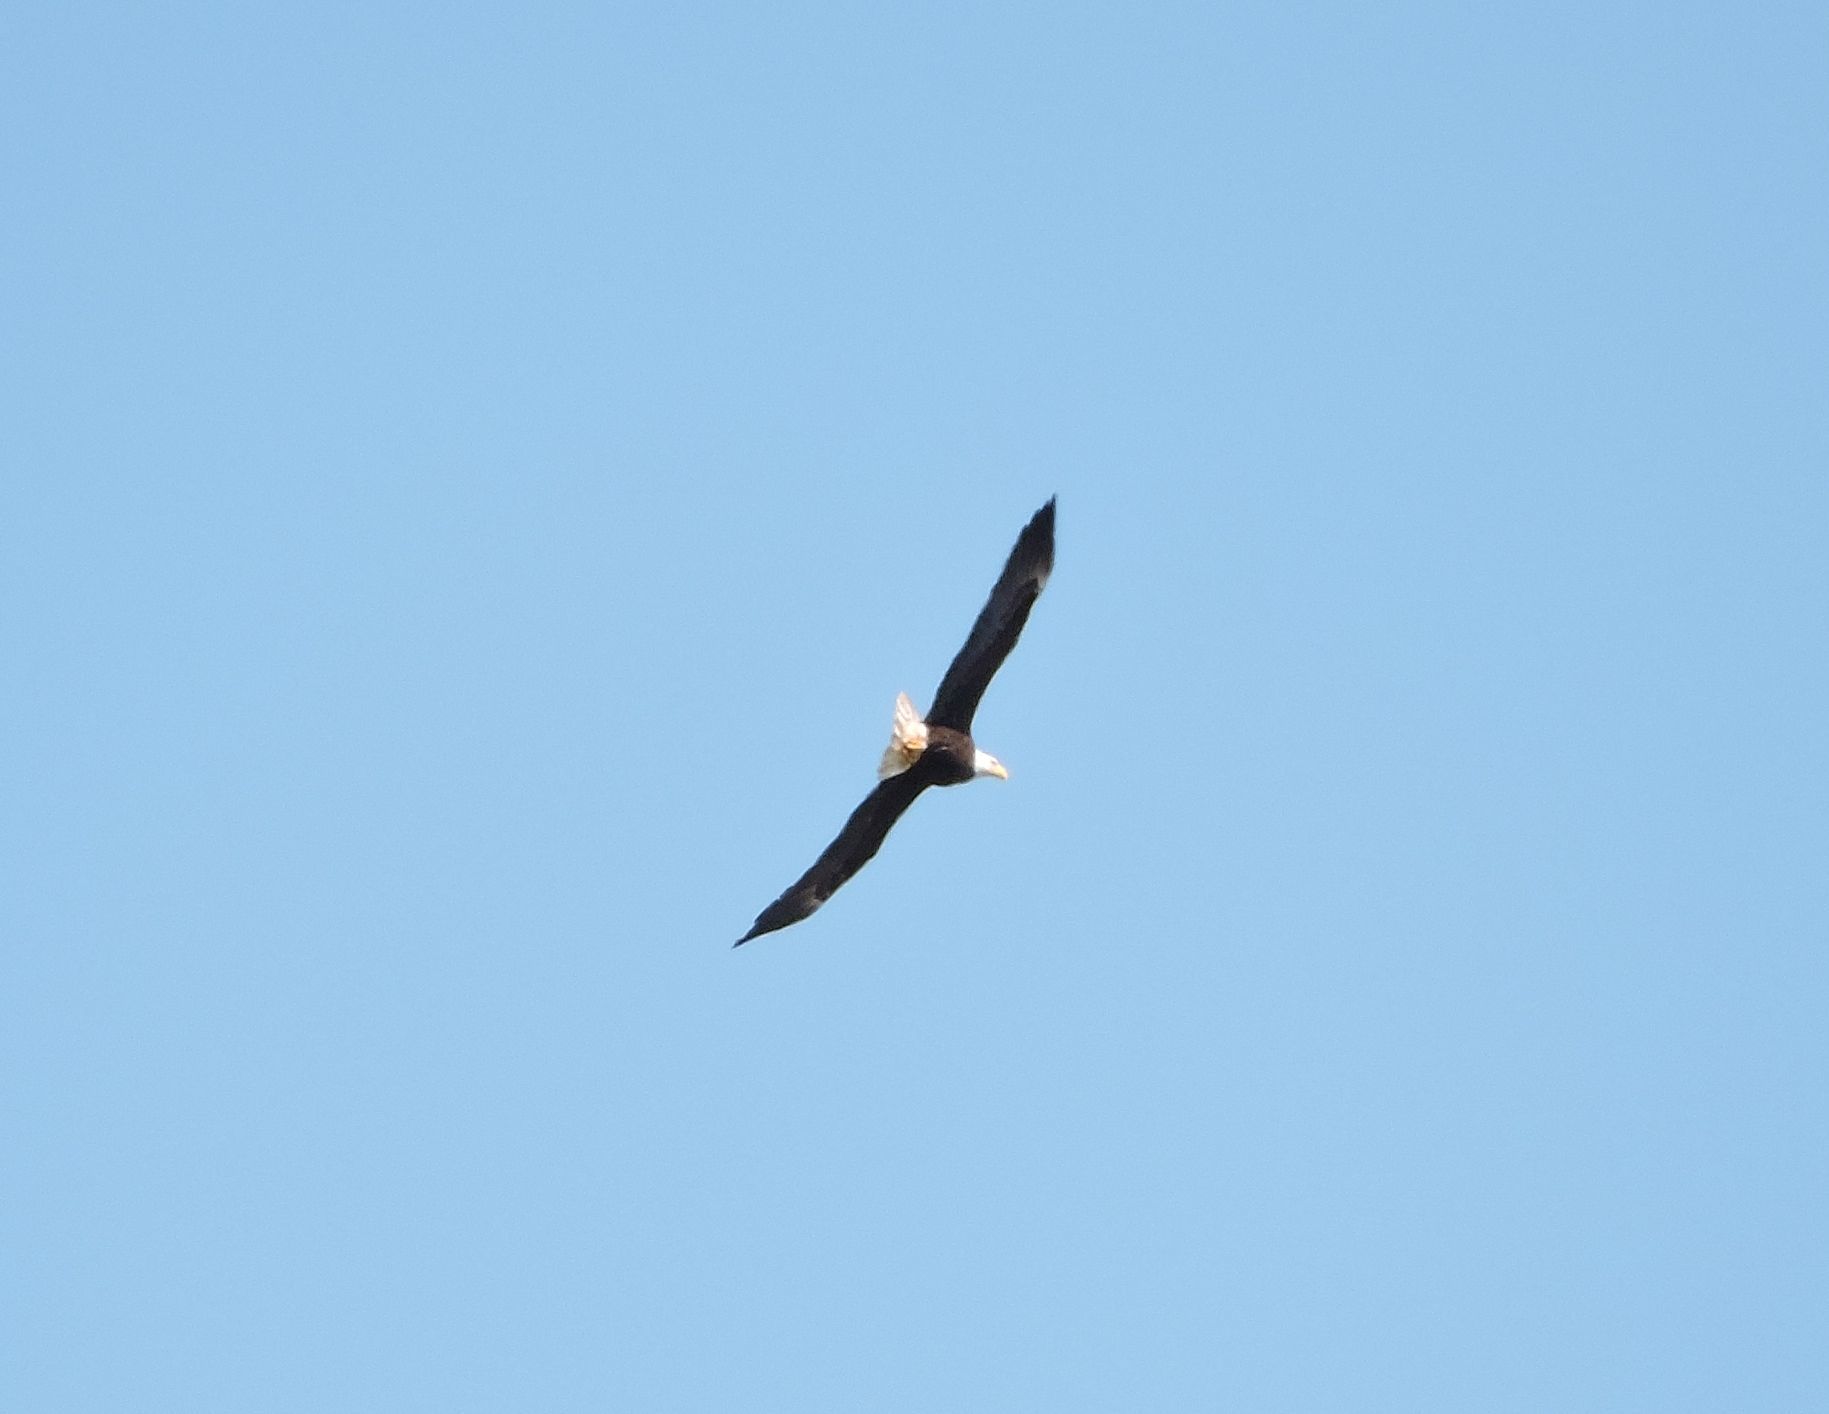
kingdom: Animalia
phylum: Chordata
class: Aves
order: Accipitriformes
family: Accipitridae
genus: Haliaeetus
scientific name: Haliaeetus leucocephalus
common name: Bald eagle
